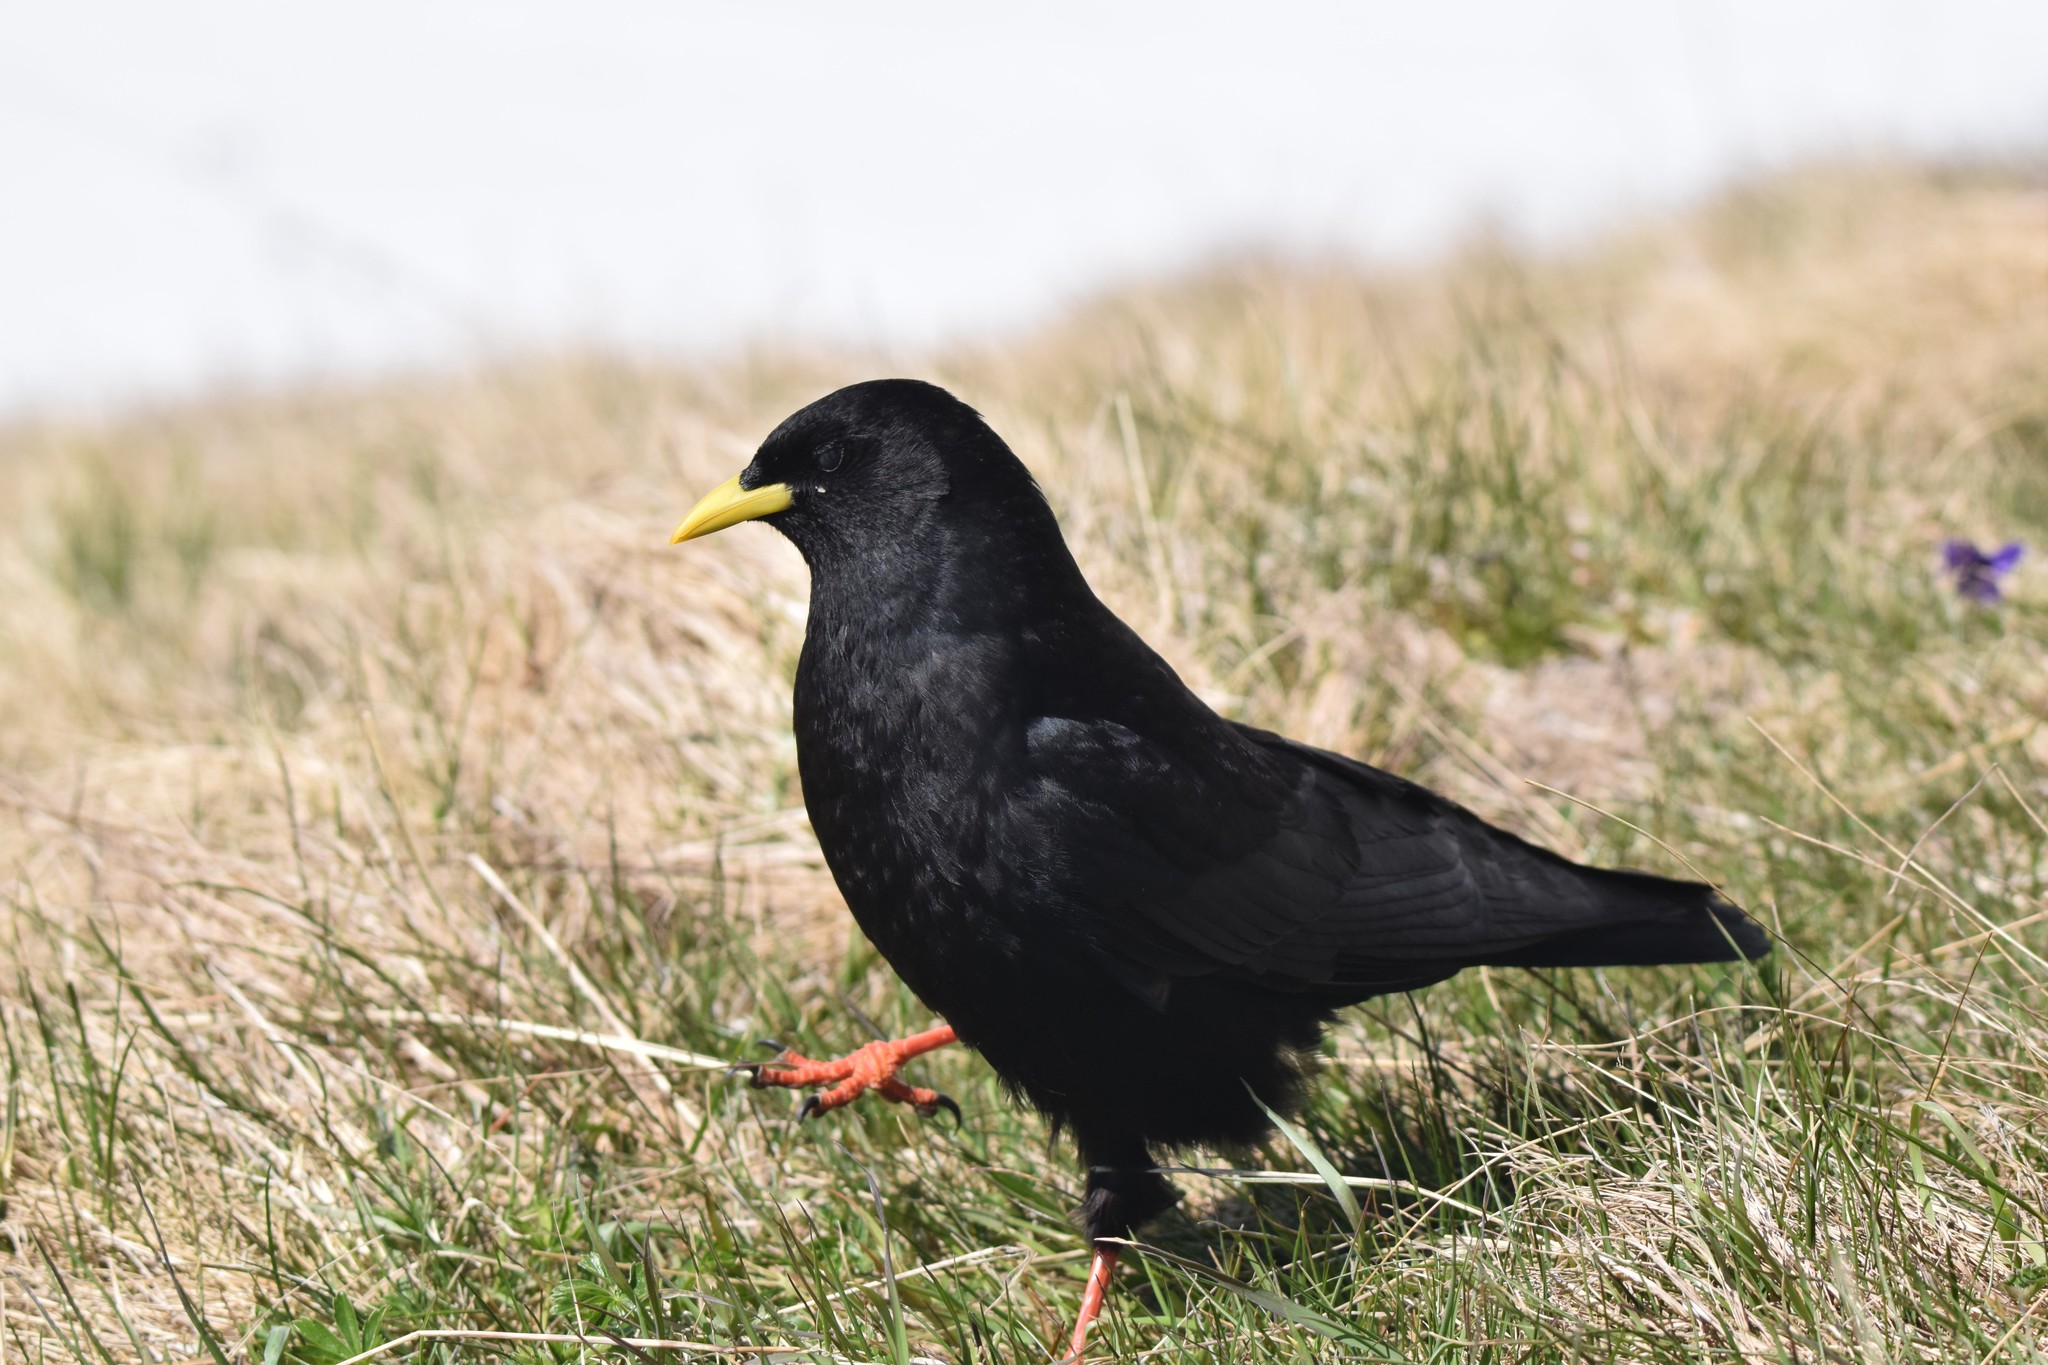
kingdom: Animalia
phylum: Chordata
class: Aves
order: Passeriformes
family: Corvidae
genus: Pyrrhocorax
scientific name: Pyrrhocorax graculus
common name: Alpine chough
